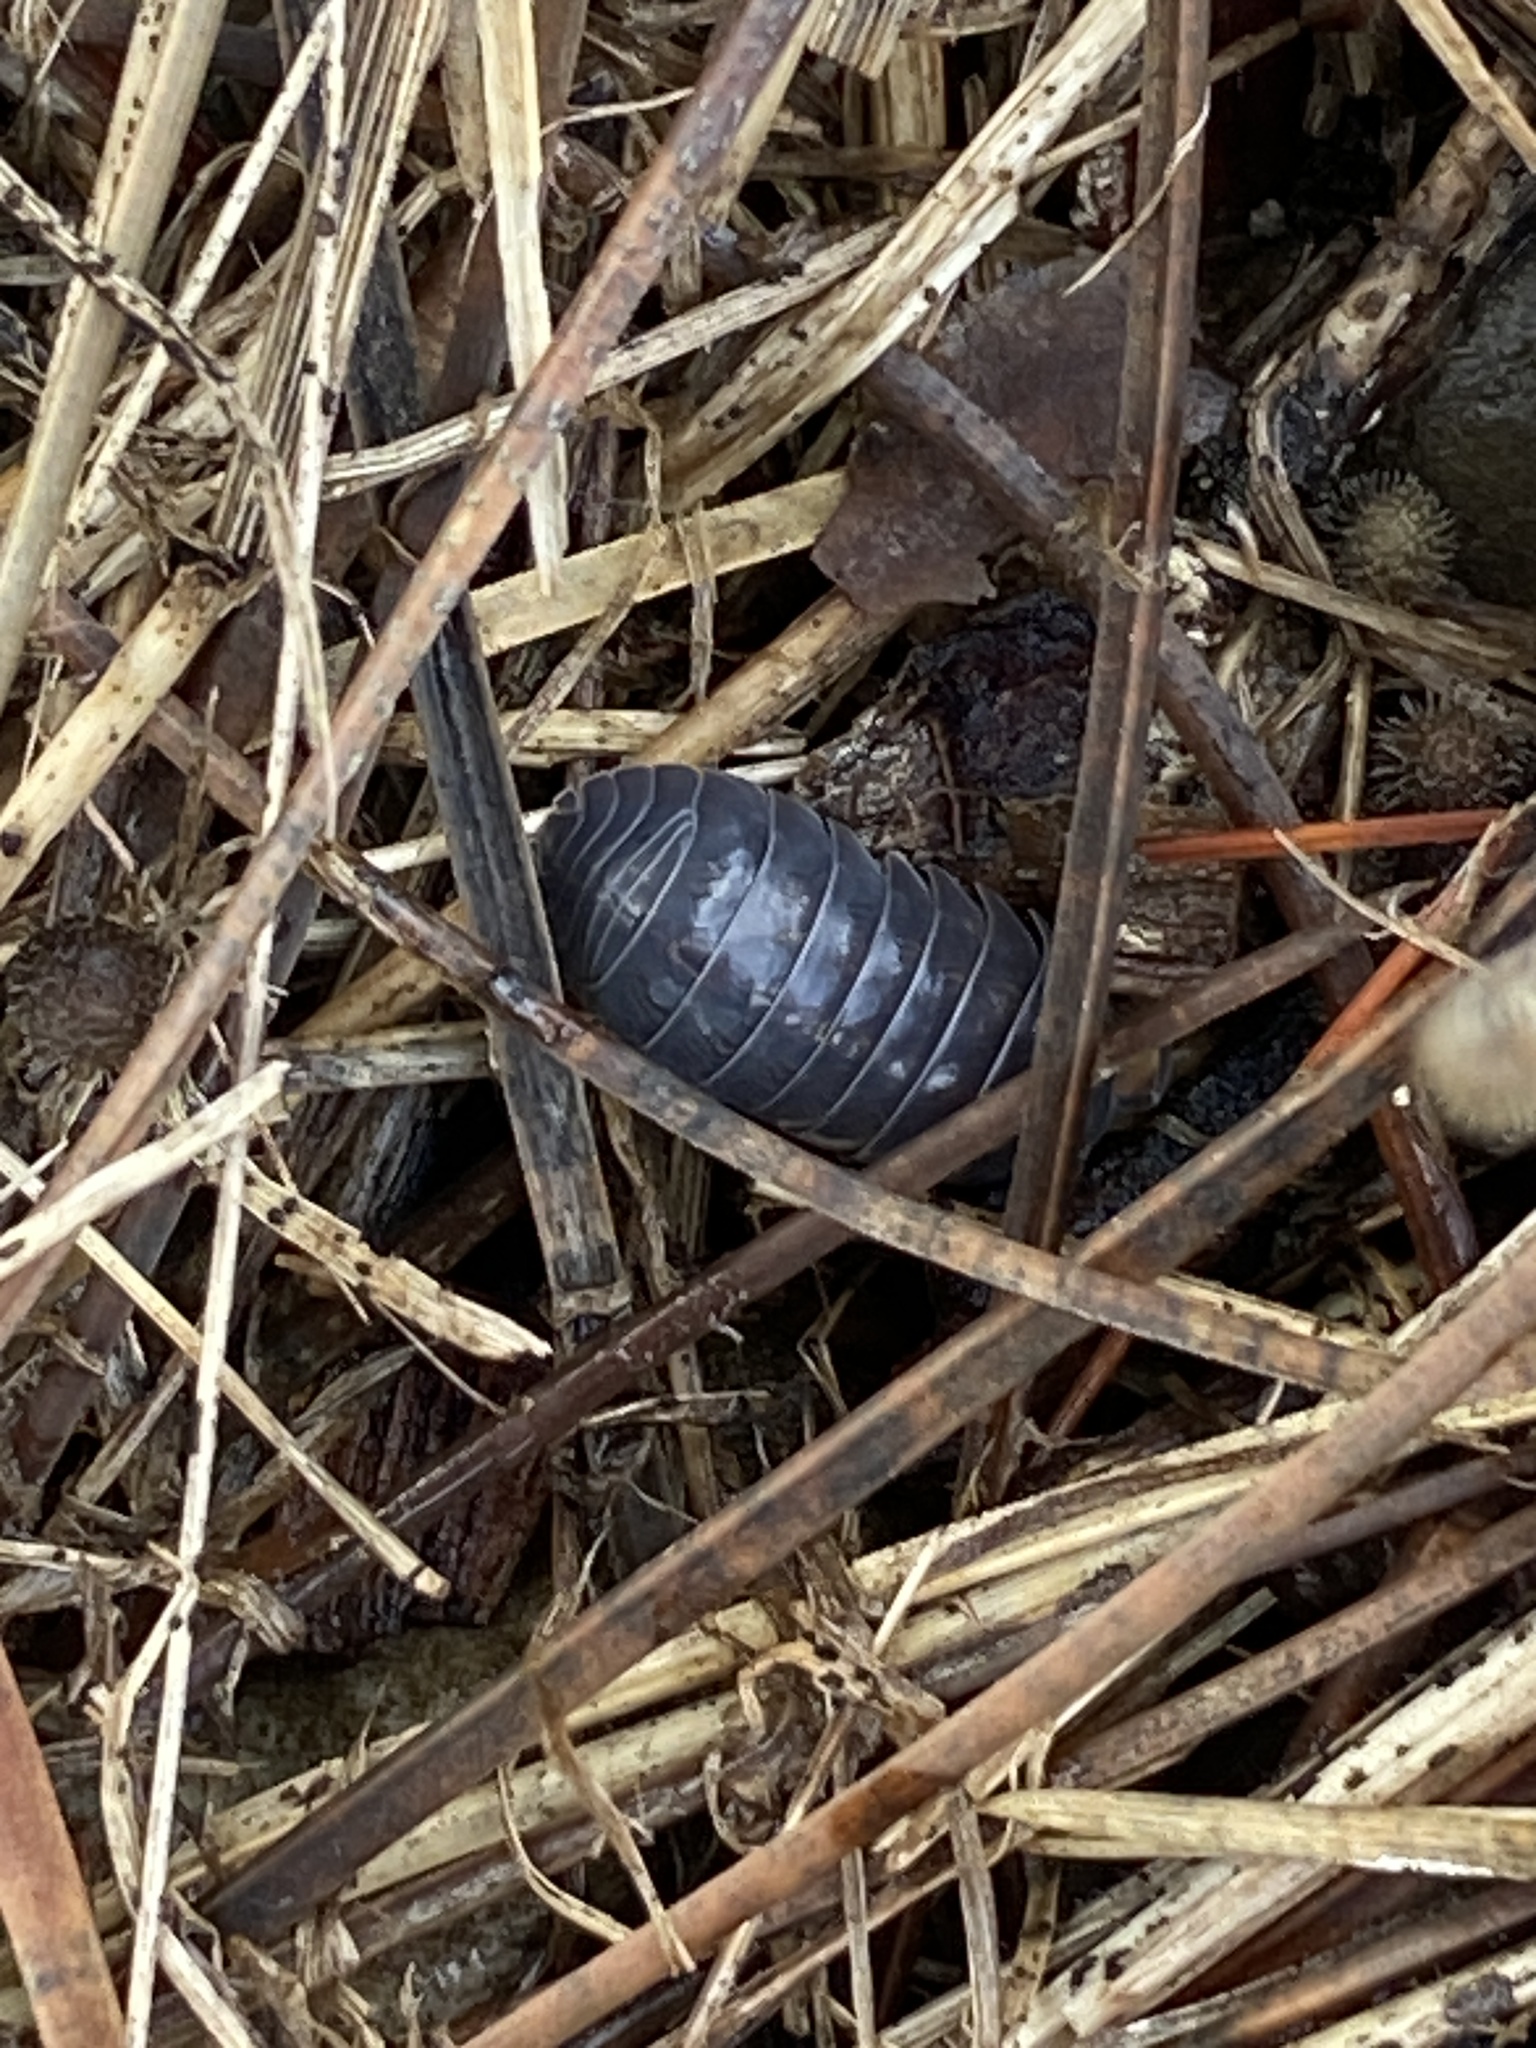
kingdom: Animalia
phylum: Arthropoda
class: Malacostraca
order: Isopoda
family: Armadillidiidae
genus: Armadillidium
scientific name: Armadillidium vulgare
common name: Common pill woodlouse
